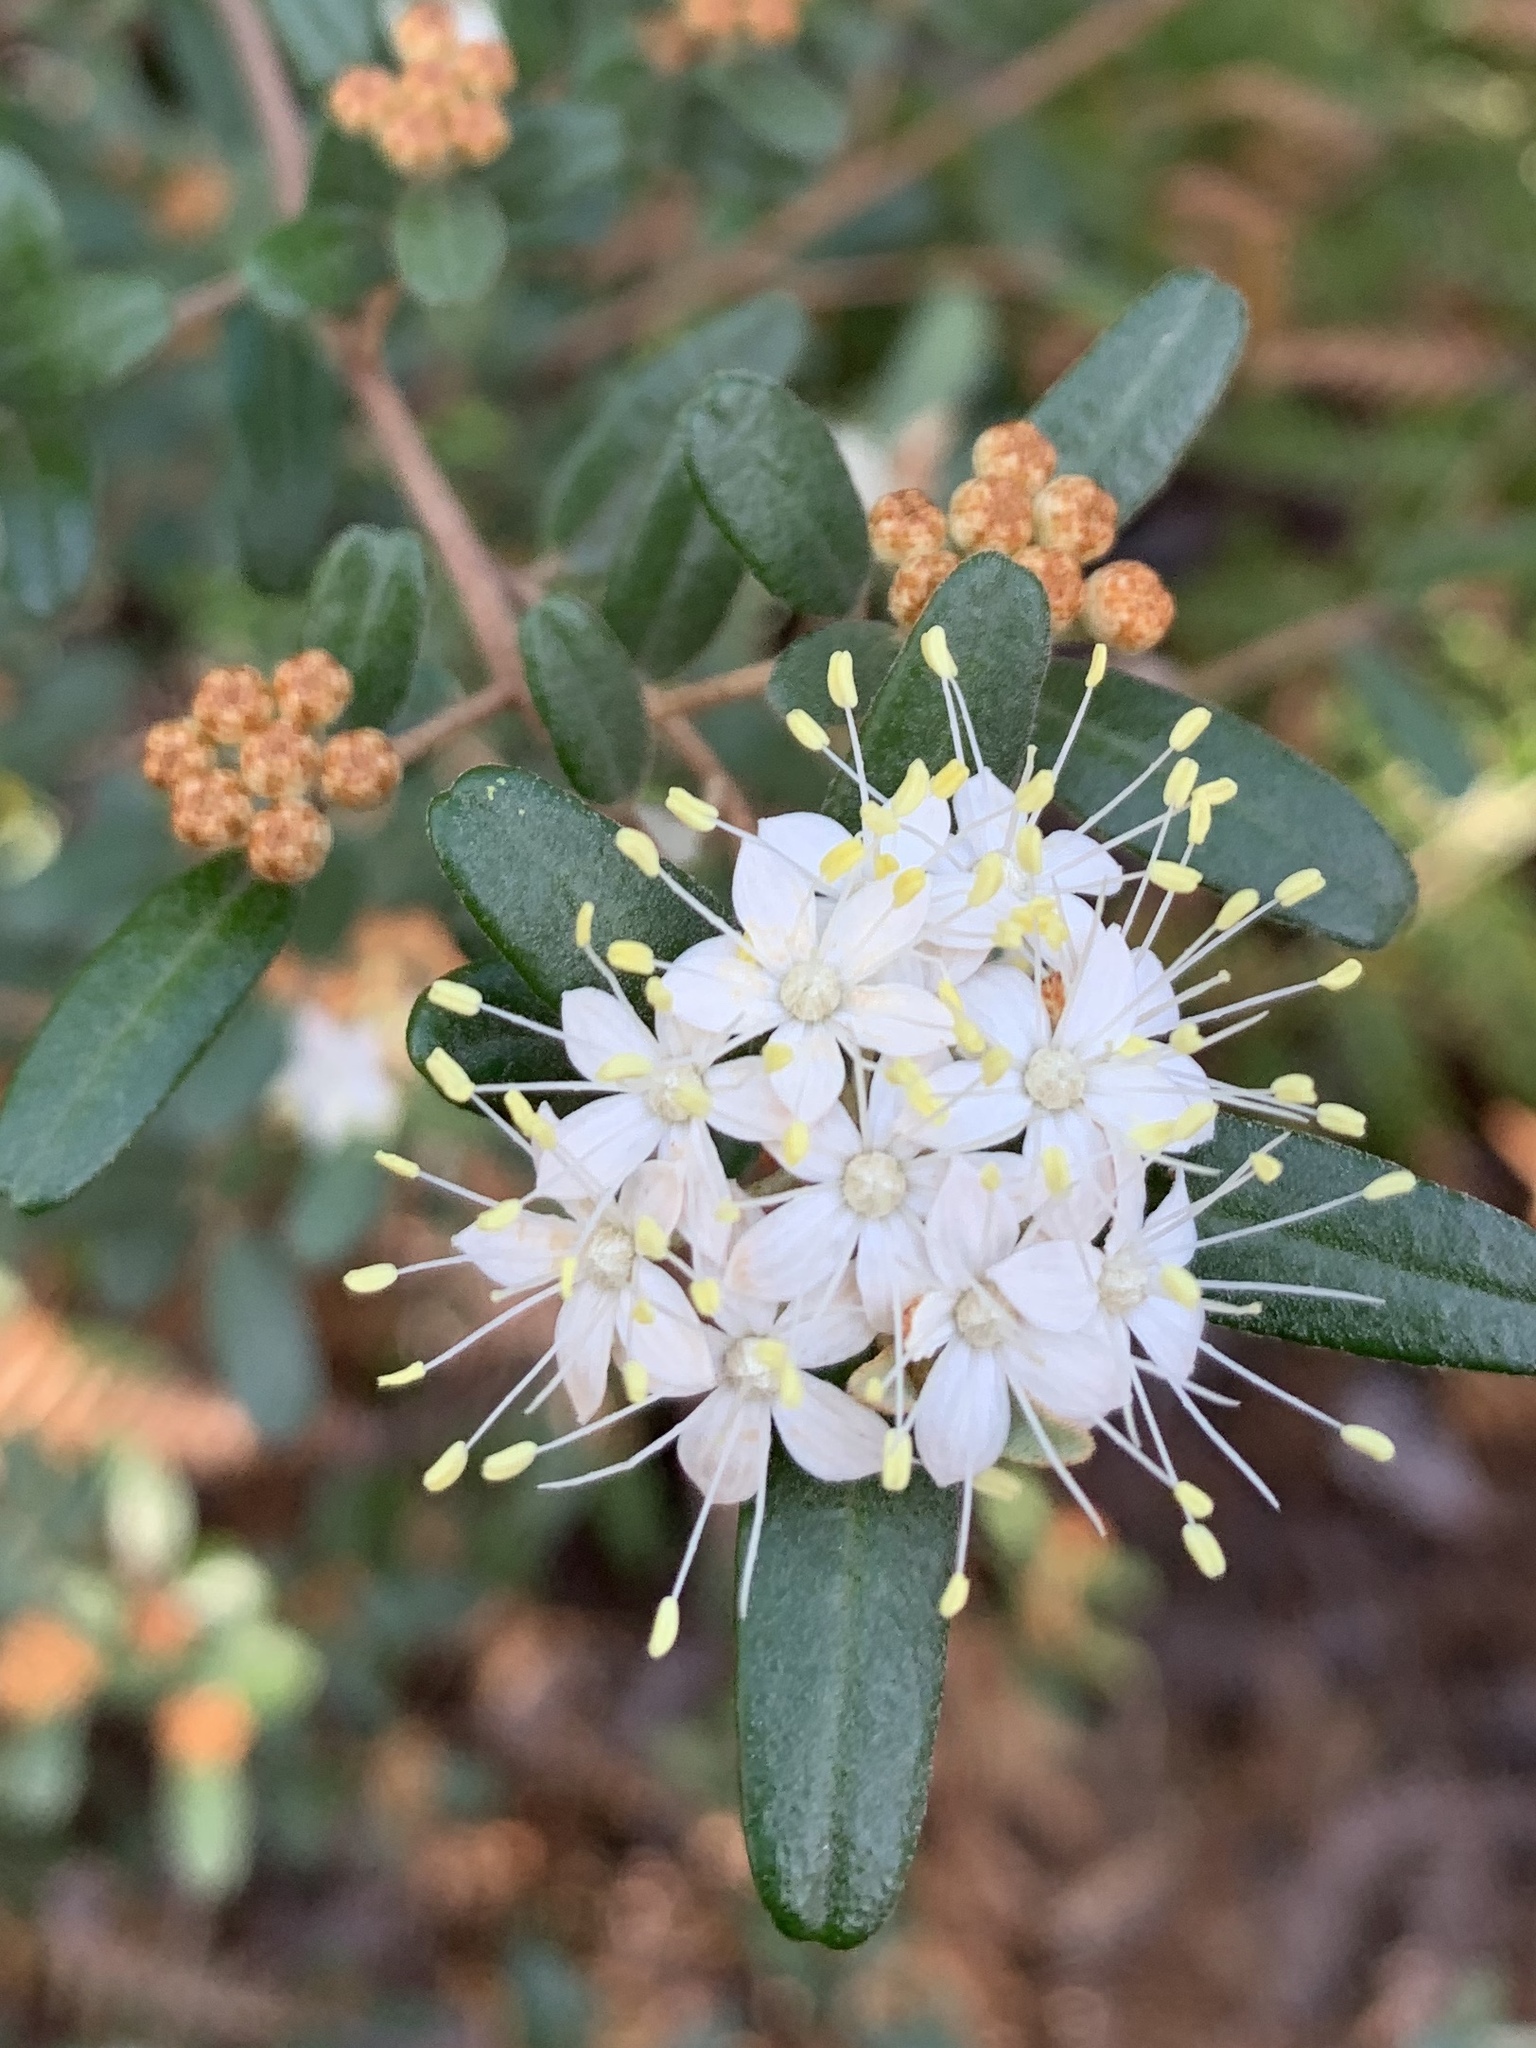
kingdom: Plantae
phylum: Tracheophyta
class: Magnoliopsida
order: Sapindales
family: Rutaceae
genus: Phebalium
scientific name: Phebalium squamulosum
